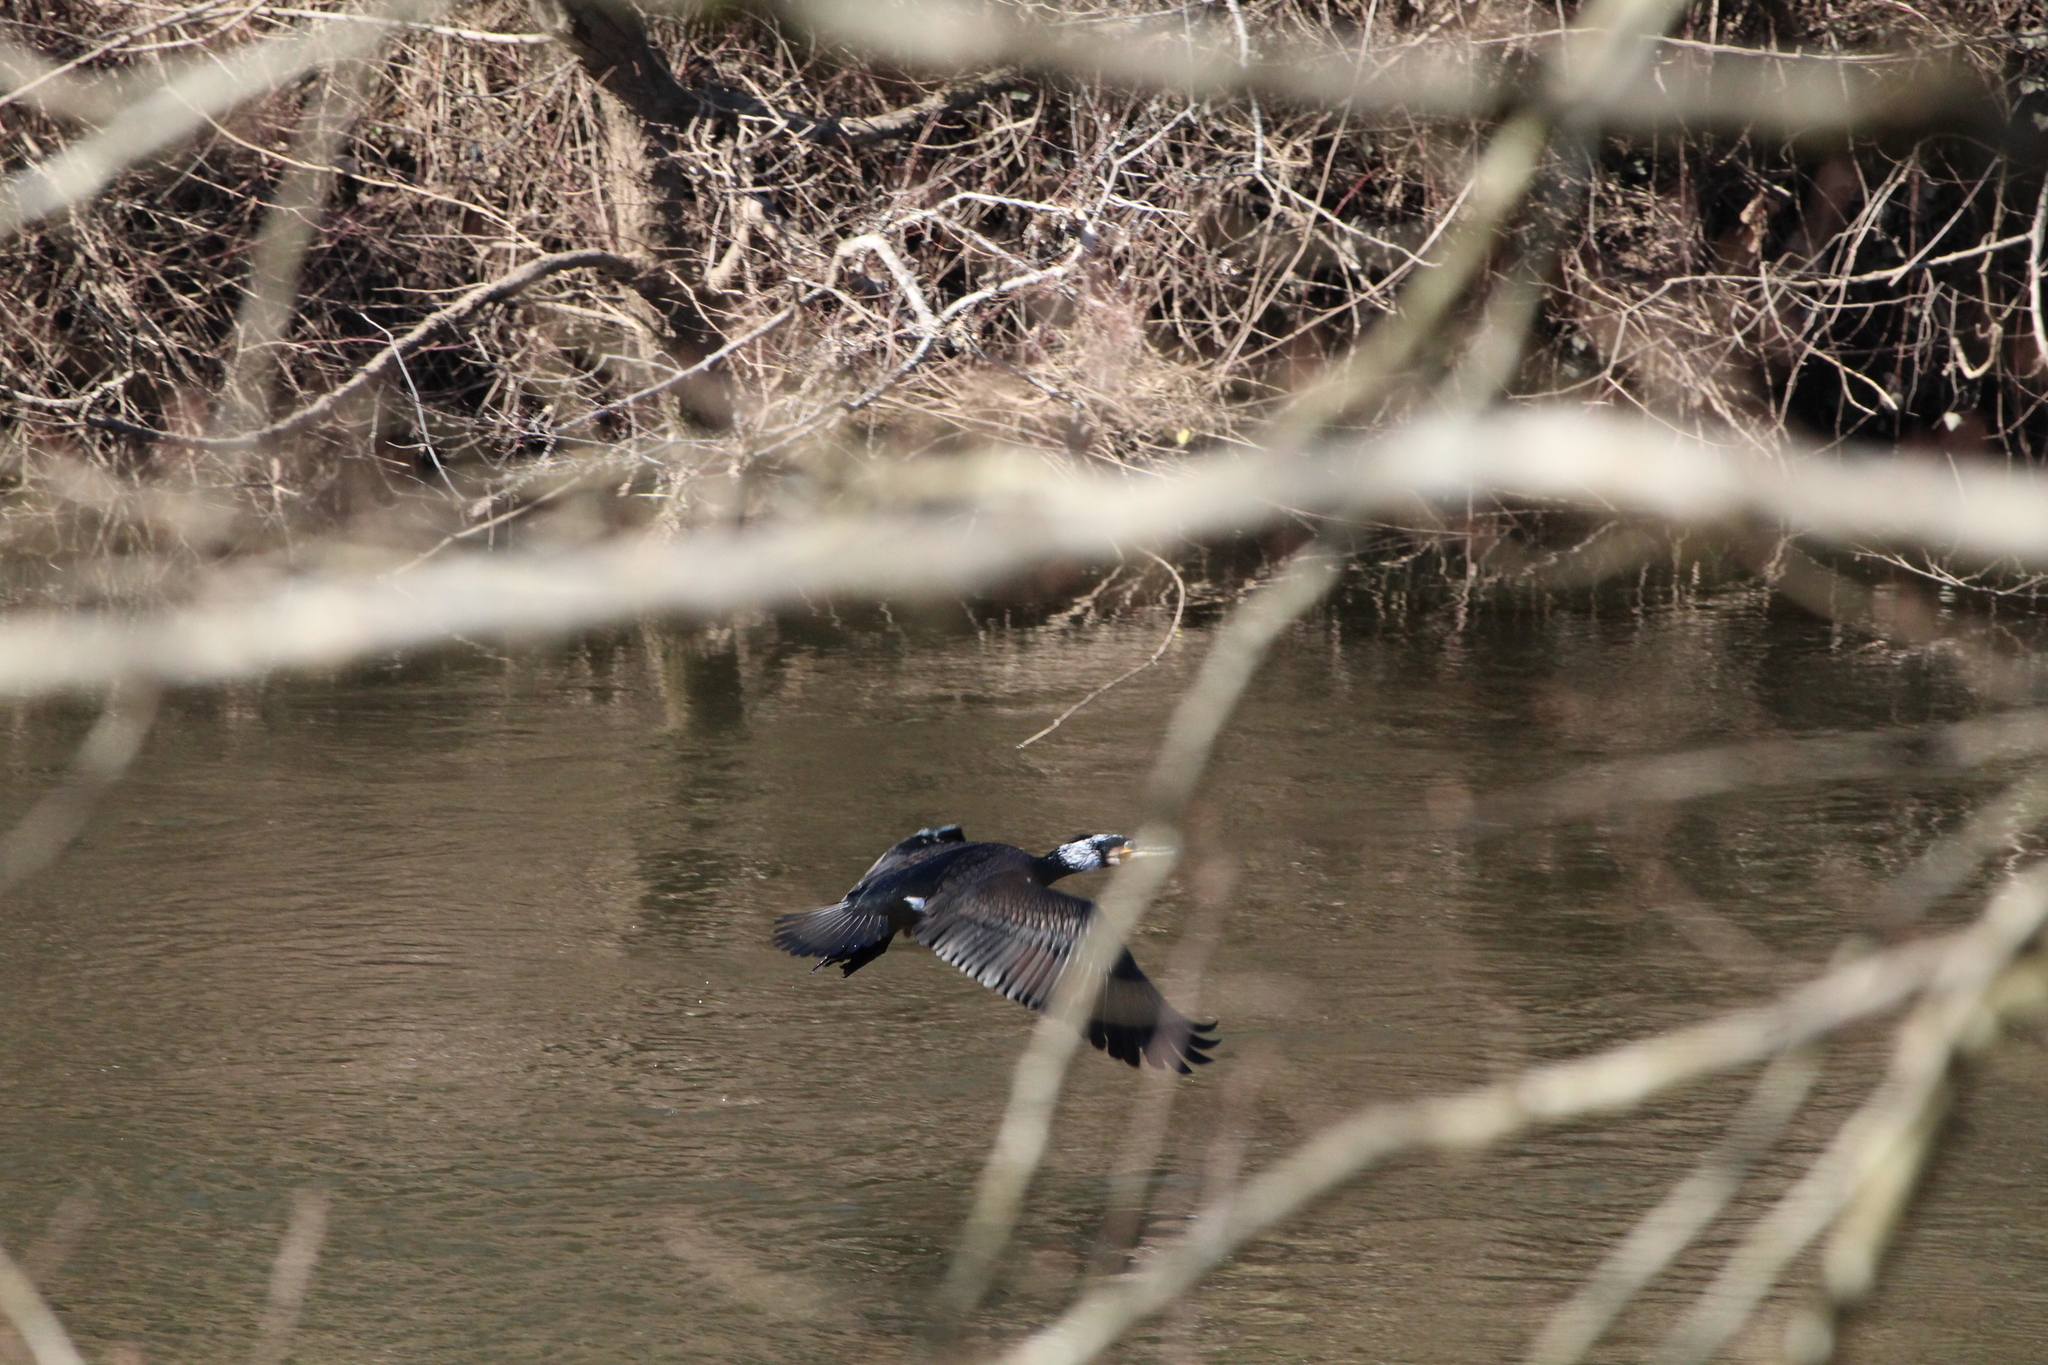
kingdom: Animalia
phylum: Chordata
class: Aves
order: Suliformes
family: Phalacrocoracidae
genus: Phalacrocorax
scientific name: Phalacrocorax carbo
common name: Great cormorant
